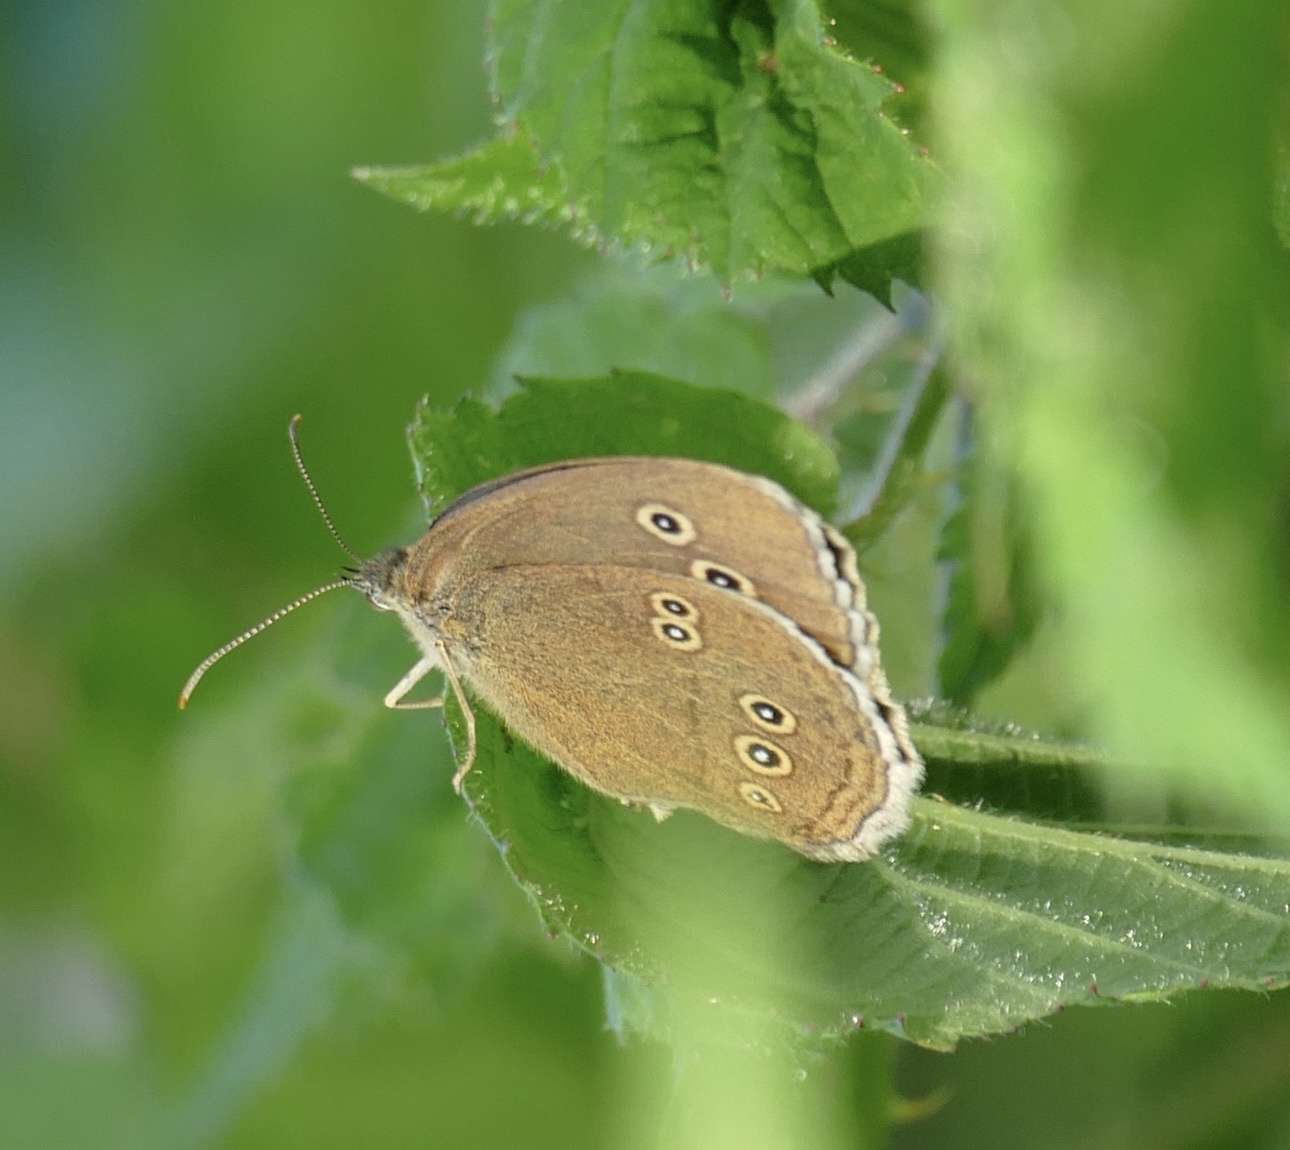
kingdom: Animalia
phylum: Arthropoda
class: Insecta
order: Lepidoptera
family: Nymphalidae
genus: Aphantopus
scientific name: Aphantopus hyperantus
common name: Ringlet
